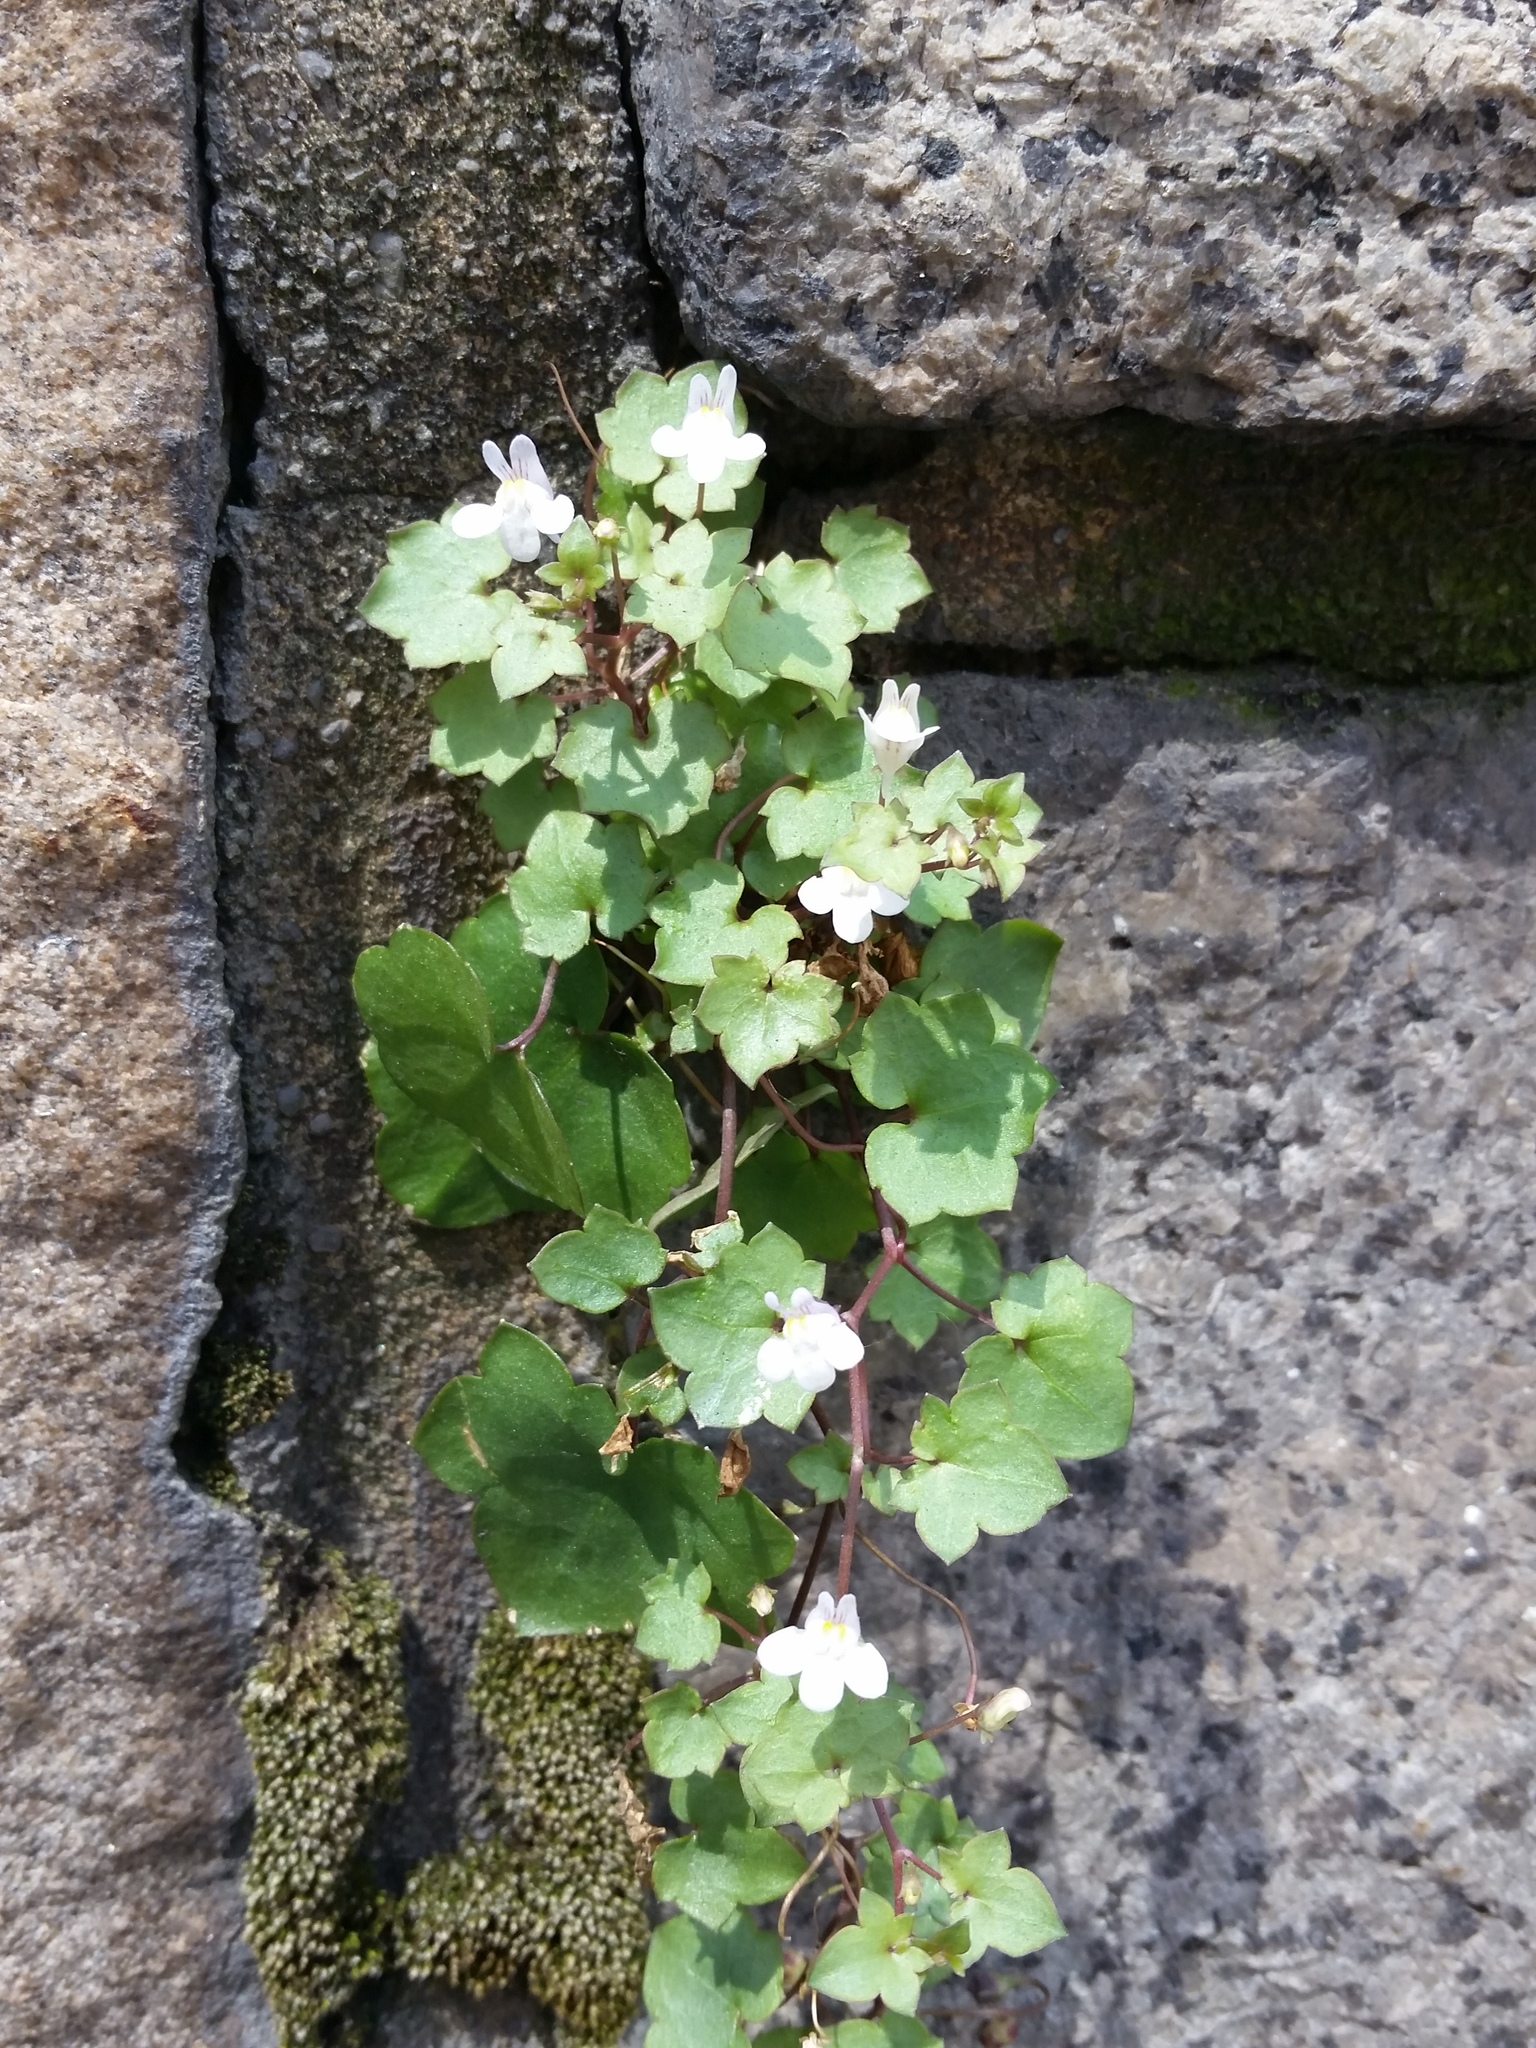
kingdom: Plantae
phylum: Tracheophyta
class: Magnoliopsida
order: Lamiales
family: Plantaginaceae
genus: Cymbalaria
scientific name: Cymbalaria muralis
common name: Ivy-leaved toadflax
